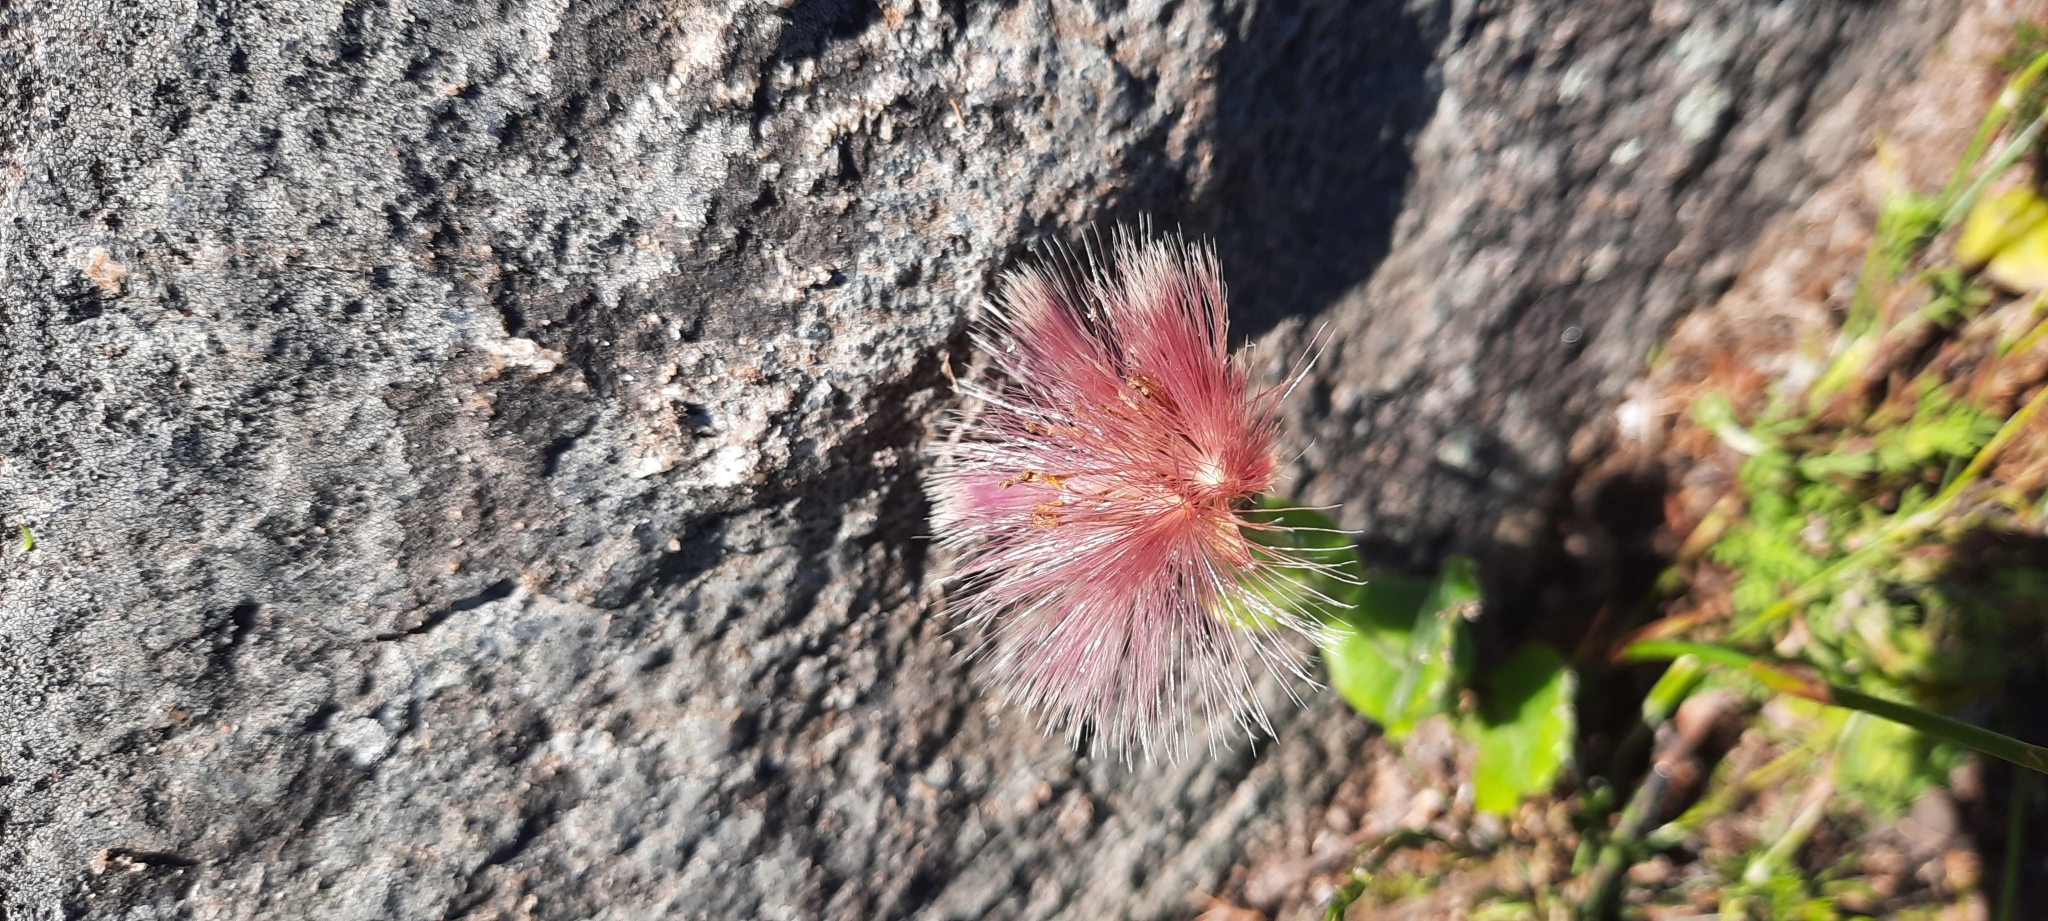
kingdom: Plantae
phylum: Tracheophyta
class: Magnoliopsida
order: Asterales
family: Asteraceae
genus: Othonna
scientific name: Othonna undulosa
